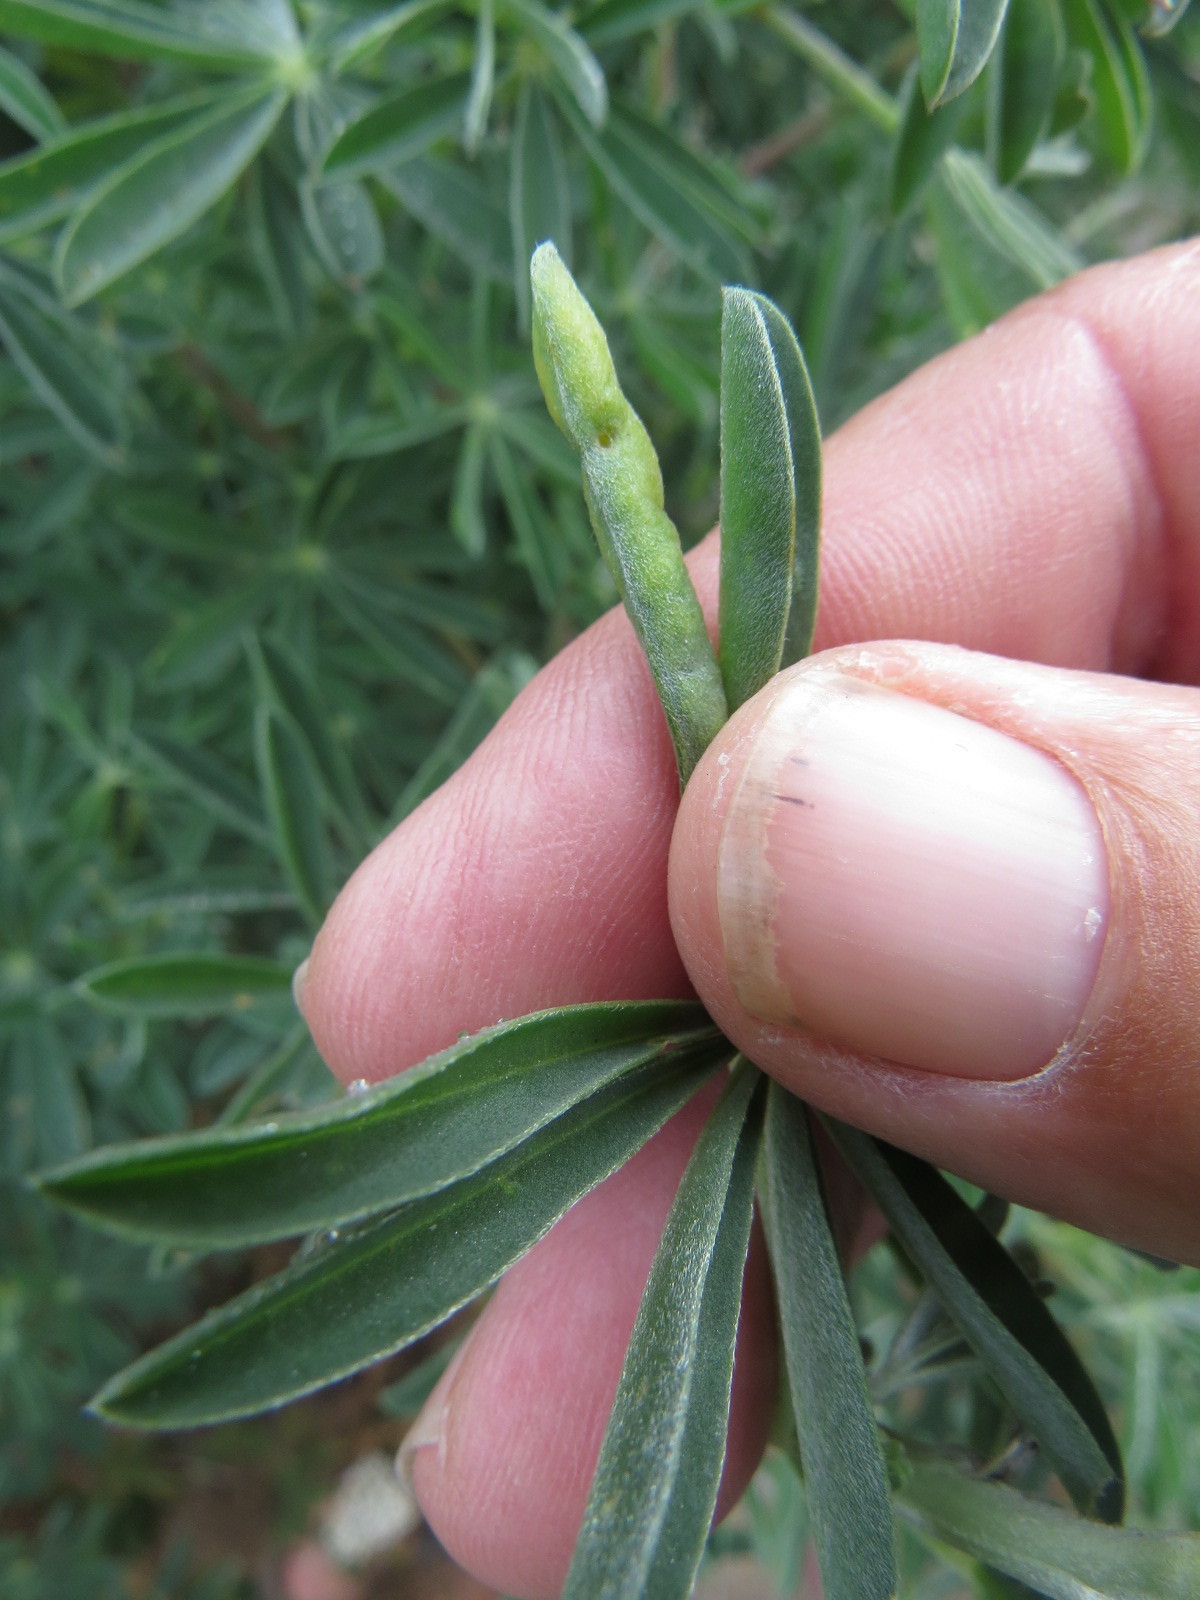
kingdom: Animalia
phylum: Arthropoda
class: Insecta
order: Diptera
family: Cecidomyiidae
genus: Dasineura
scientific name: Dasineura lupinorum
